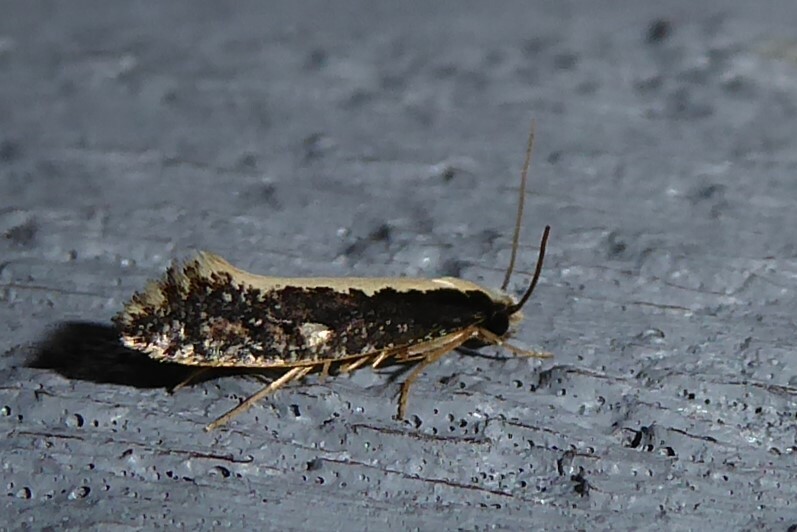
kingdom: Animalia
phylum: Arthropoda
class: Insecta
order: Lepidoptera
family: Tineidae
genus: Monopis
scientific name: Monopis ethelella
